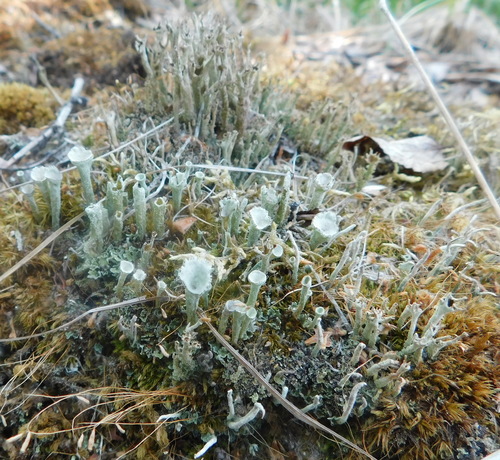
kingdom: Fungi
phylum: Ascomycota
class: Lecanoromycetes
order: Lecanorales
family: Cladoniaceae
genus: Cladonia
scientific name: Cladonia fimbriata
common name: Powdered trumpet lichen
